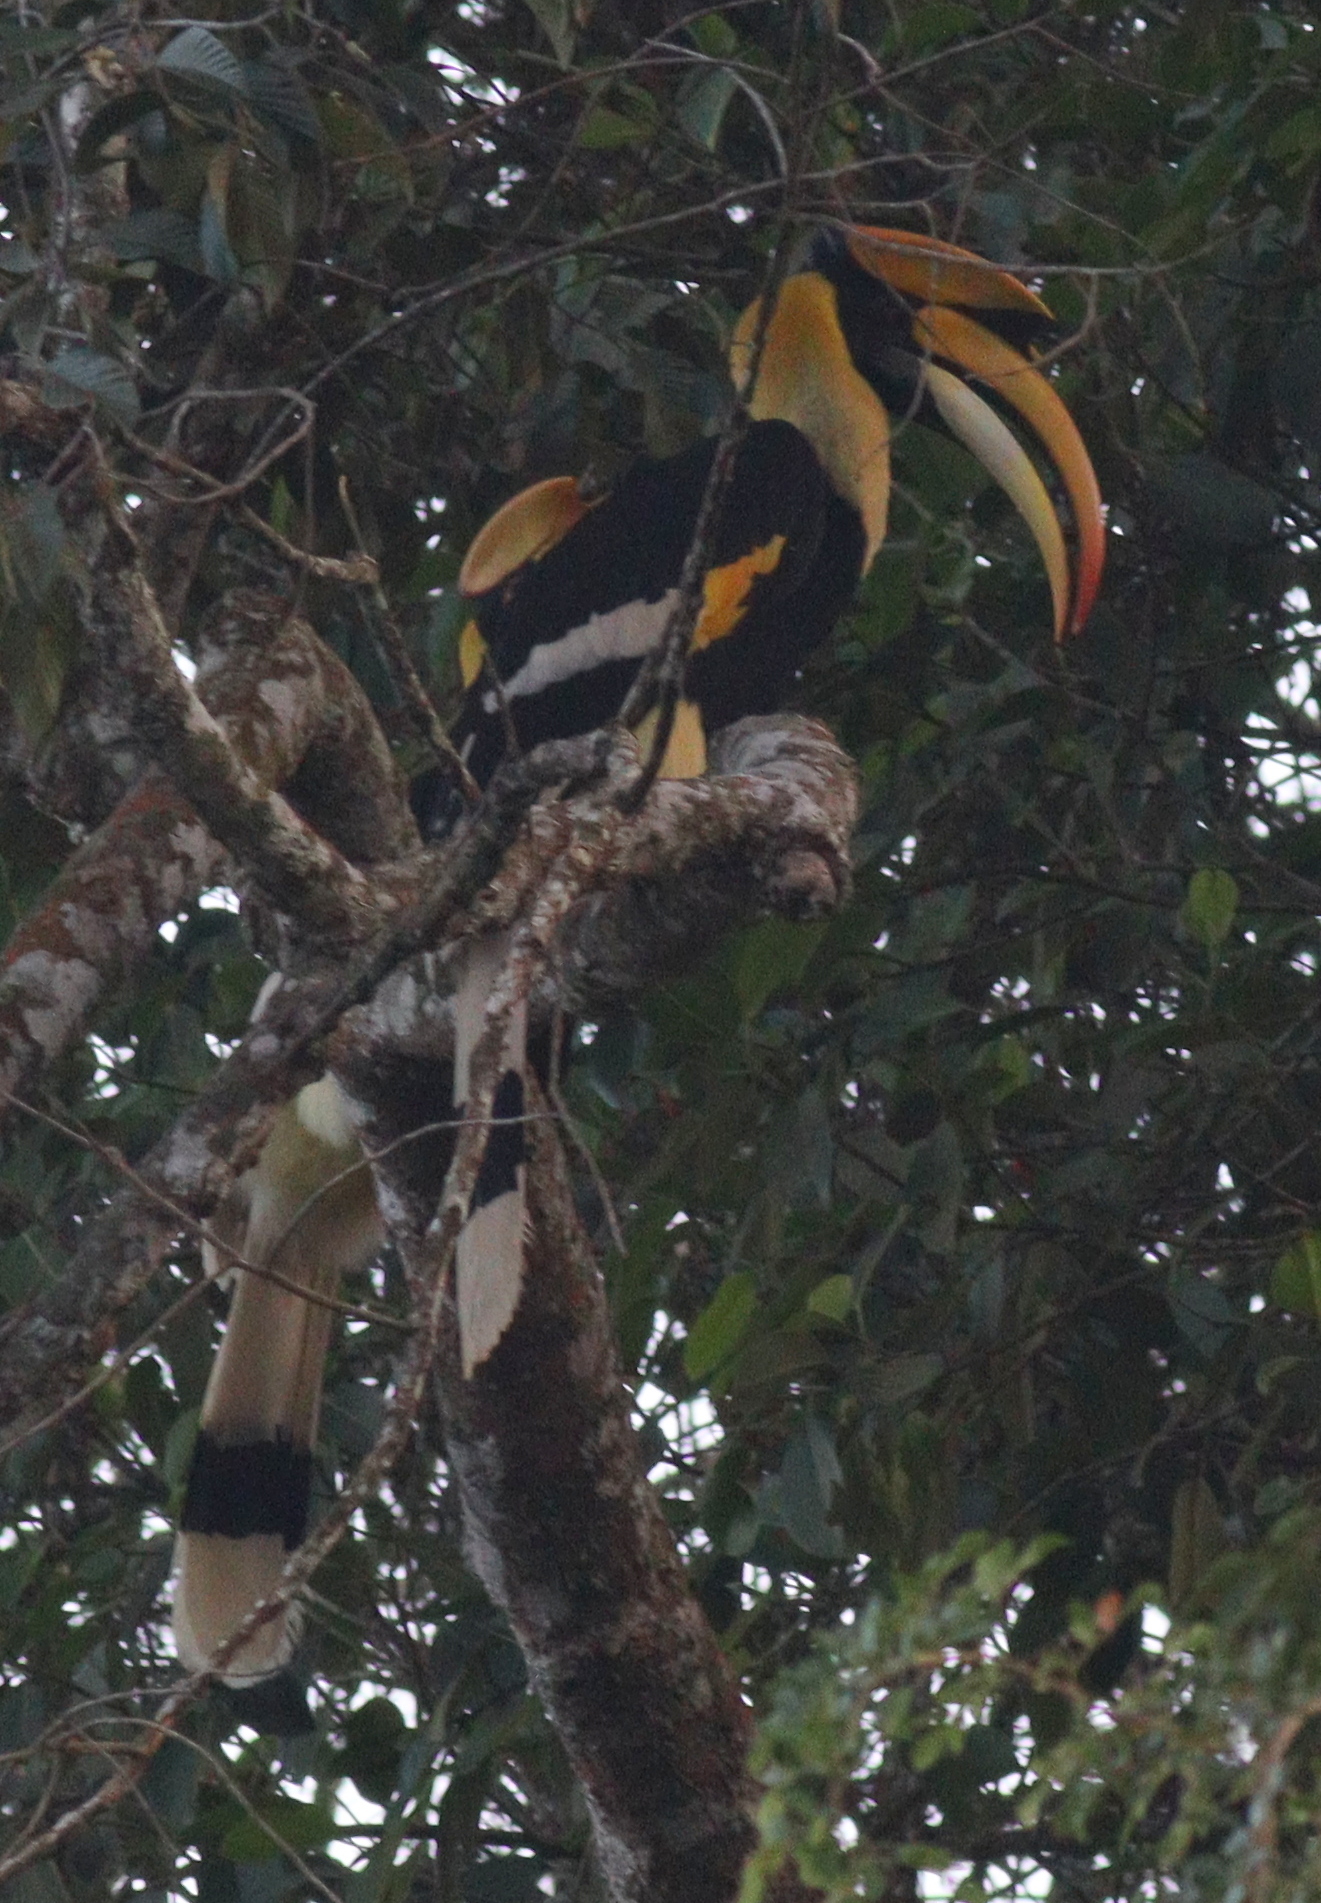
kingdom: Animalia
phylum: Chordata
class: Aves
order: Bucerotiformes
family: Bucerotidae
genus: Buceros
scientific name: Buceros bicornis
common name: Great hornbill
